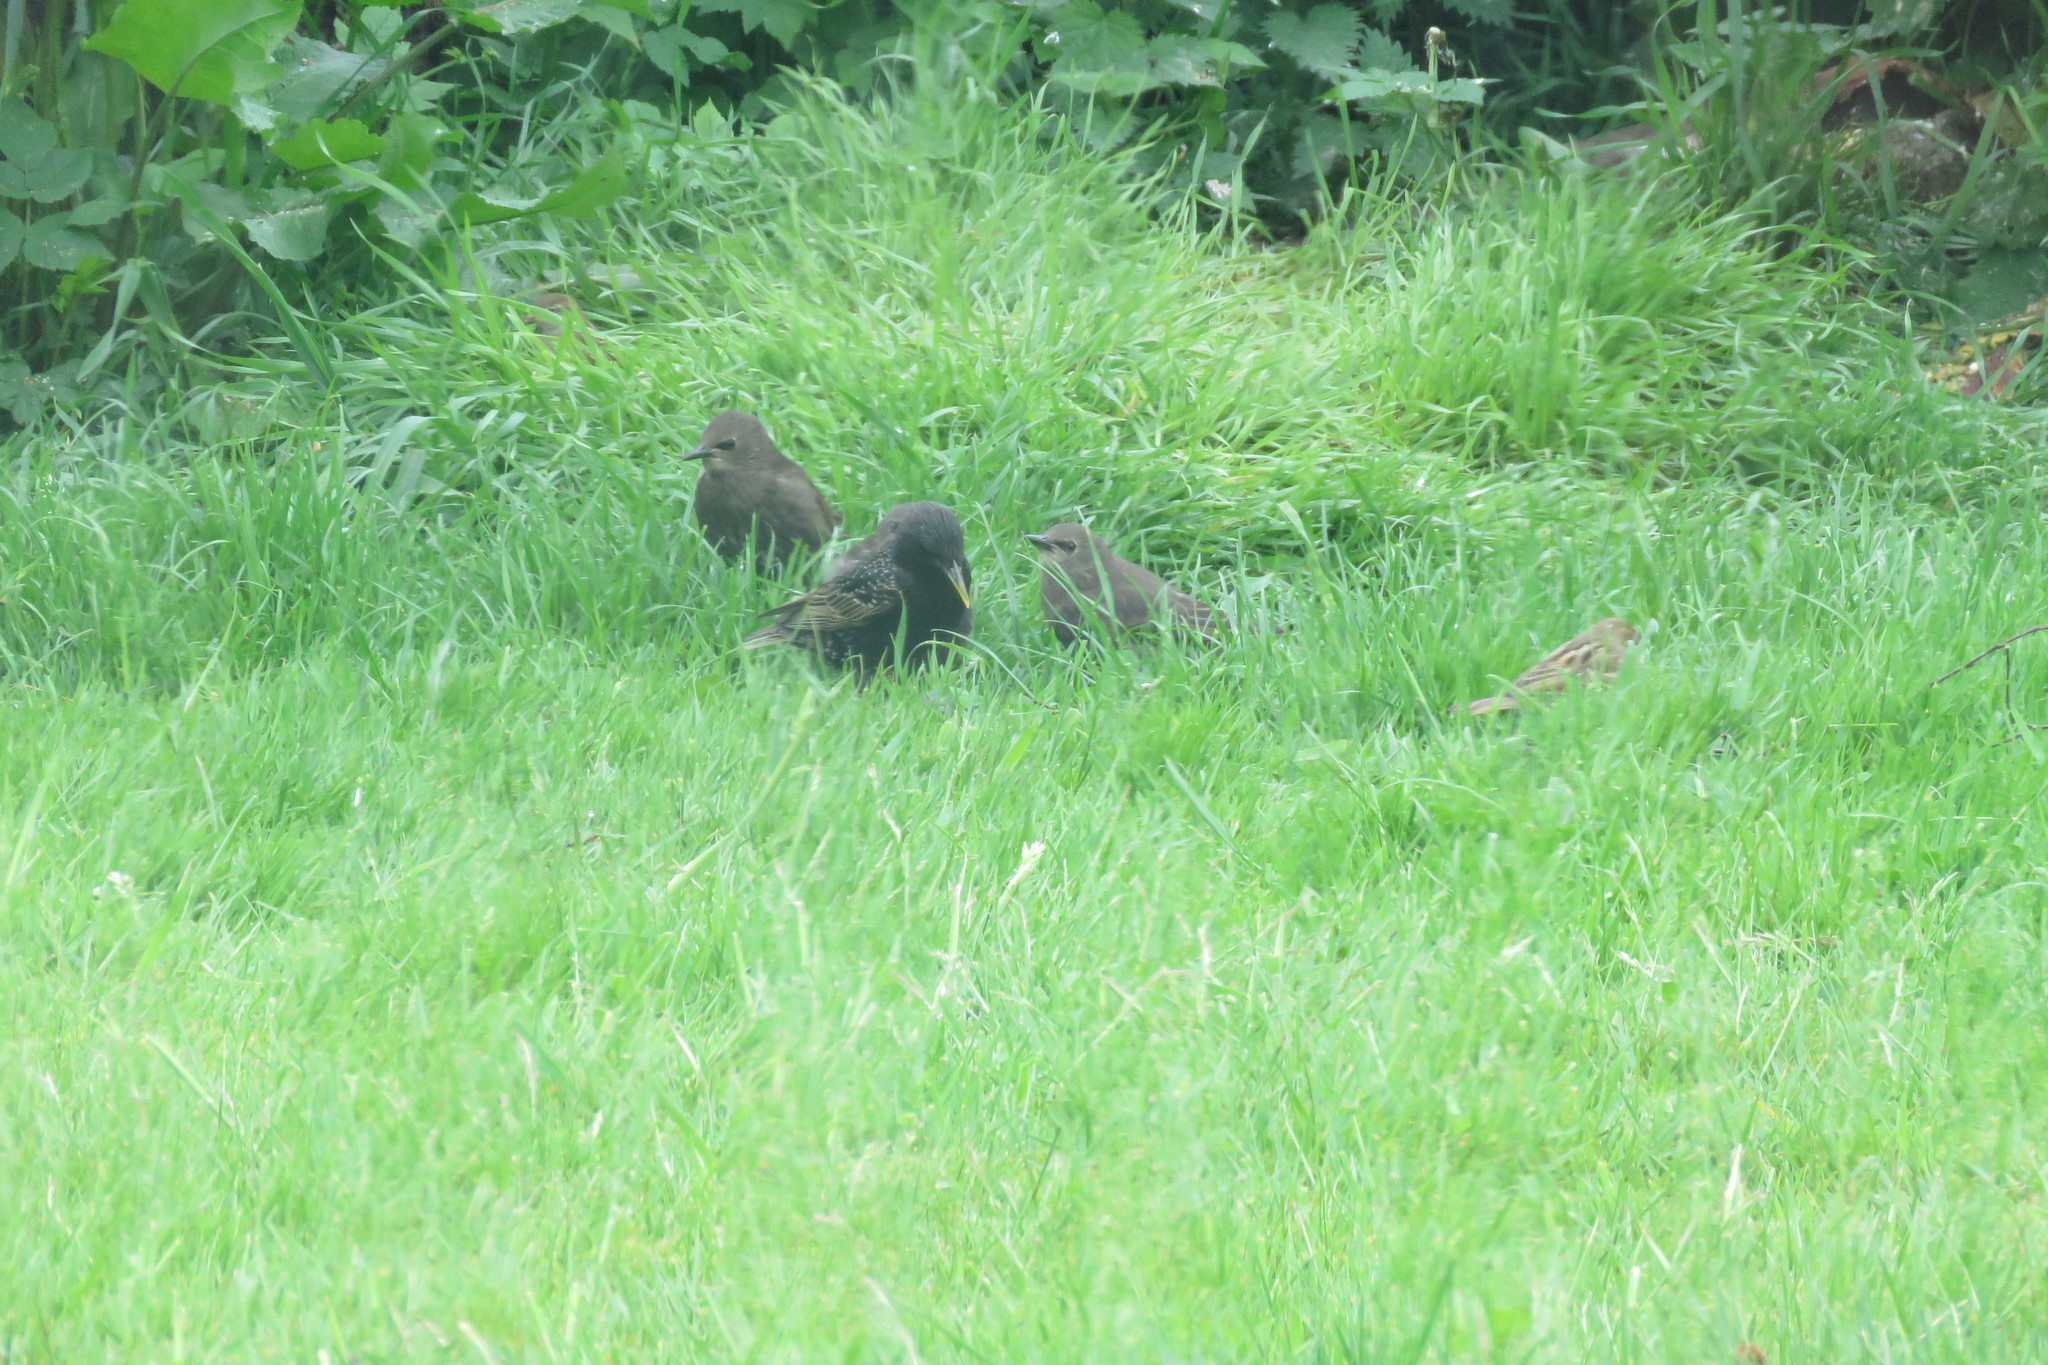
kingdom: Animalia
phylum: Chordata
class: Aves
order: Passeriformes
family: Sturnidae
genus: Sturnus
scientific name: Sturnus vulgaris
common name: Common starling
